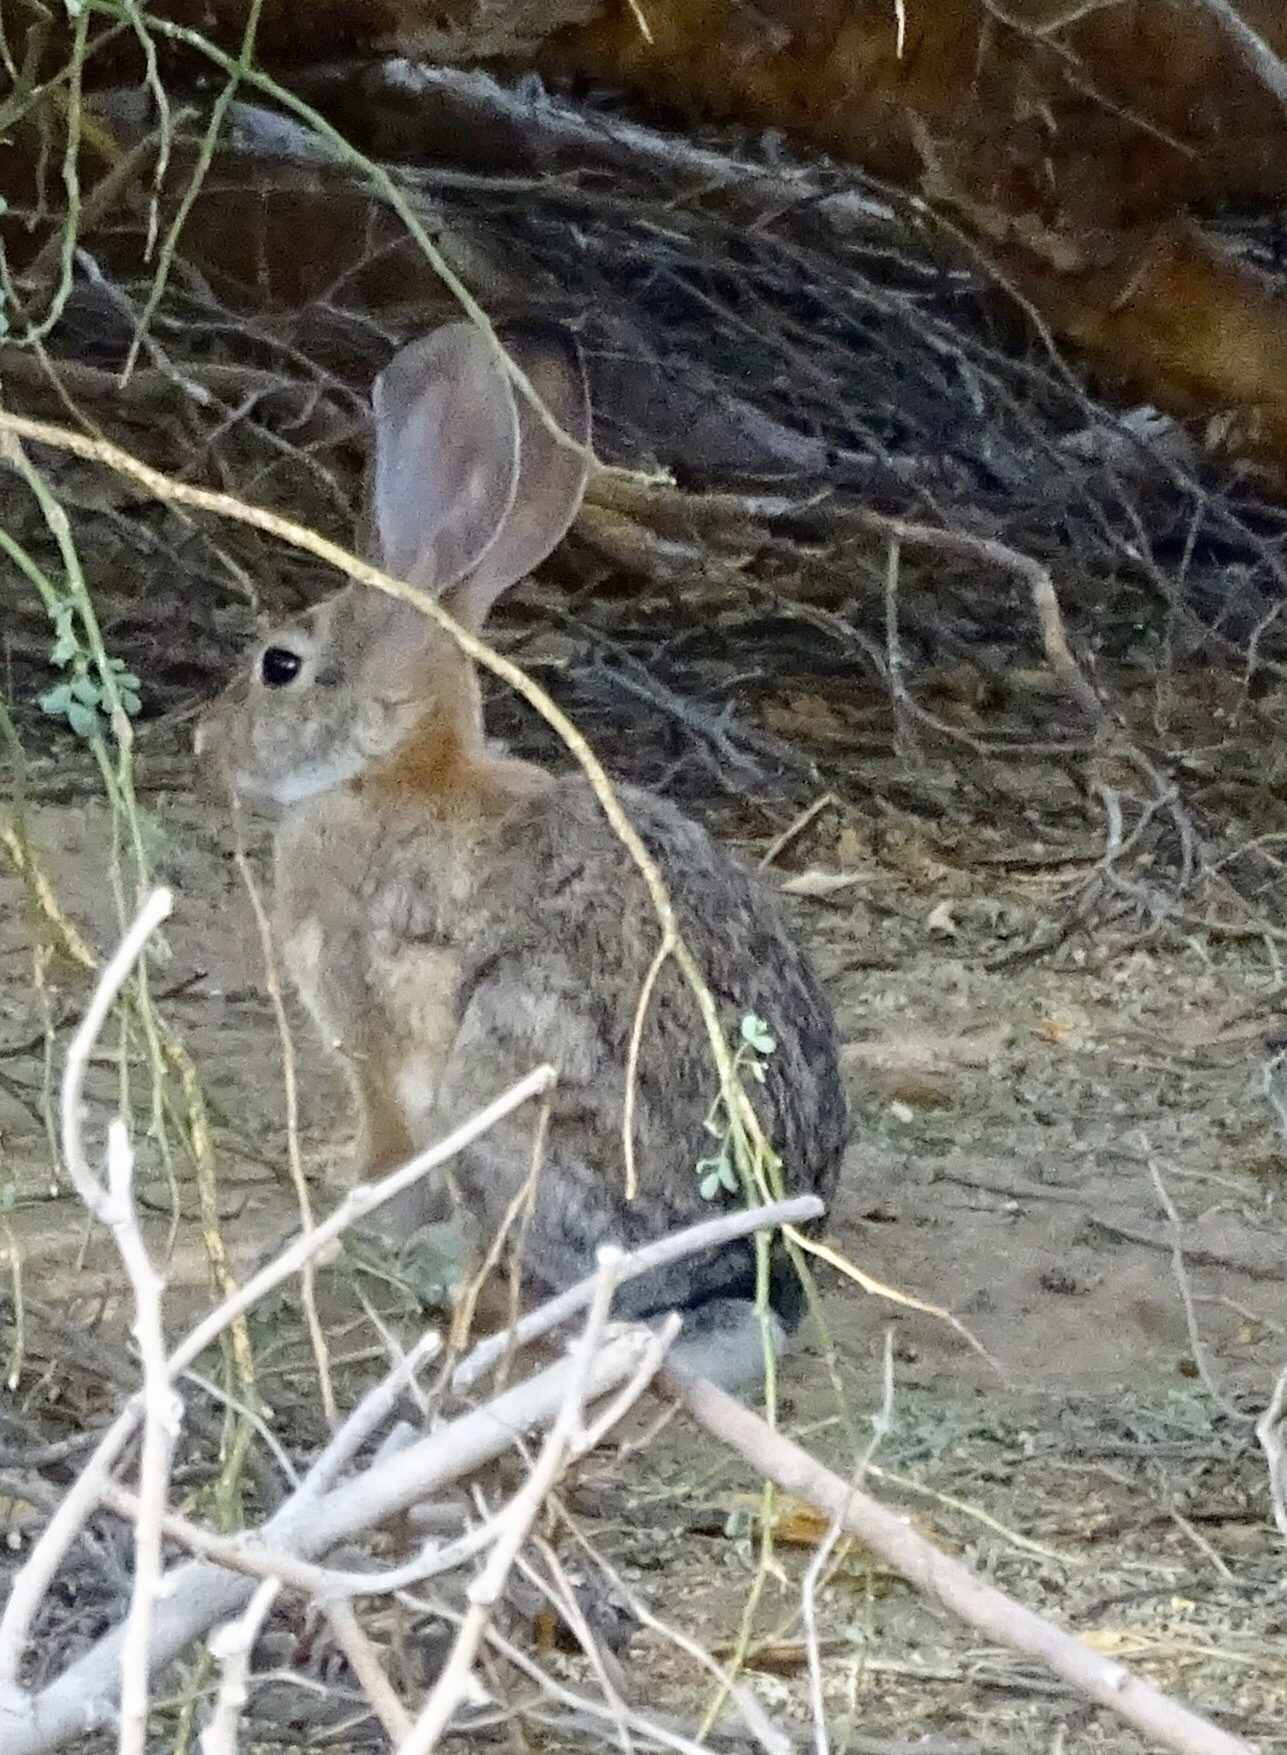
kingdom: Animalia
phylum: Chordata
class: Mammalia
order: Lagomorpha
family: Leporidae
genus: Sylvilagus
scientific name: Sylvilagus audubonii
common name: Desert cottontail
